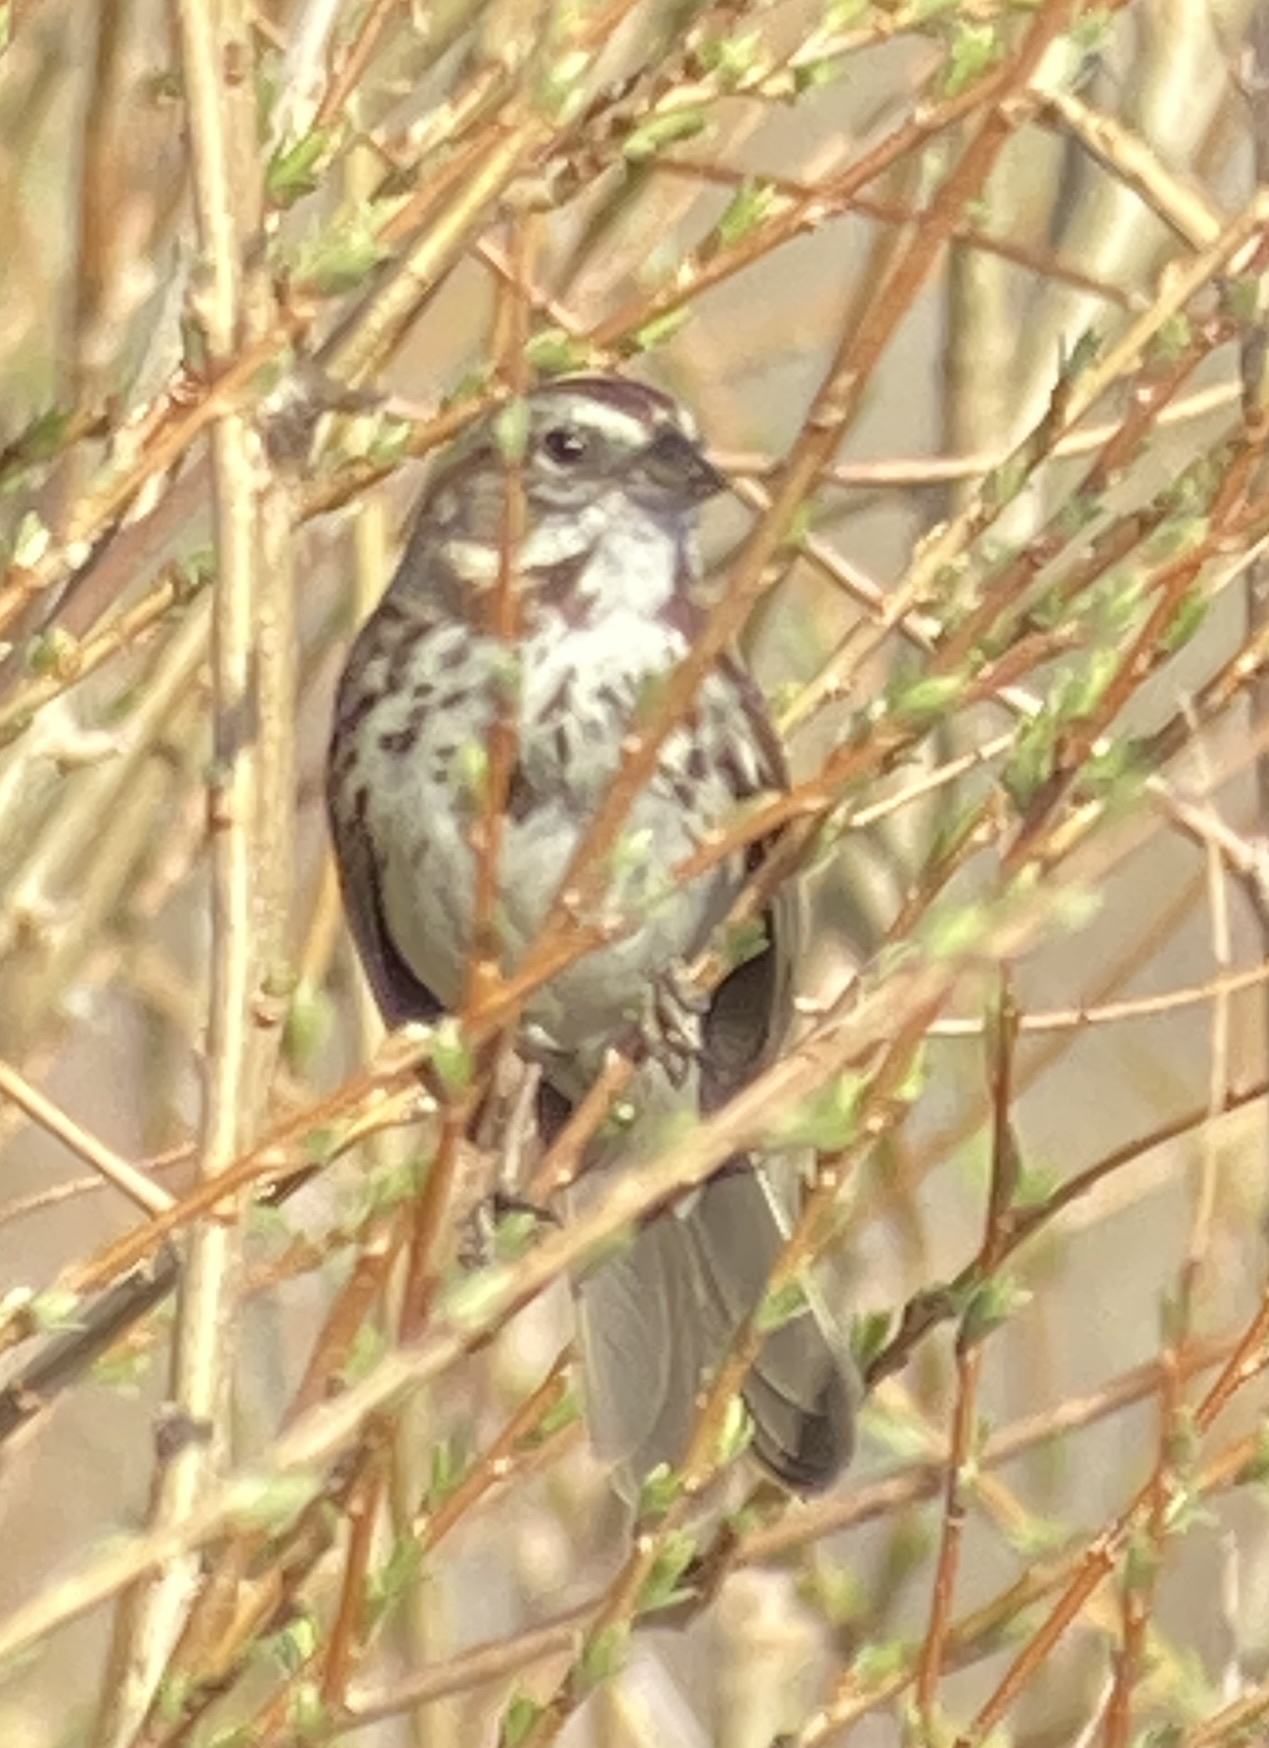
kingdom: Animalia
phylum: Chordata
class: Aves
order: Passeriformes
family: Passerellidae
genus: Melospiza
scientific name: Melospiza melodia
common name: Song sparrow
